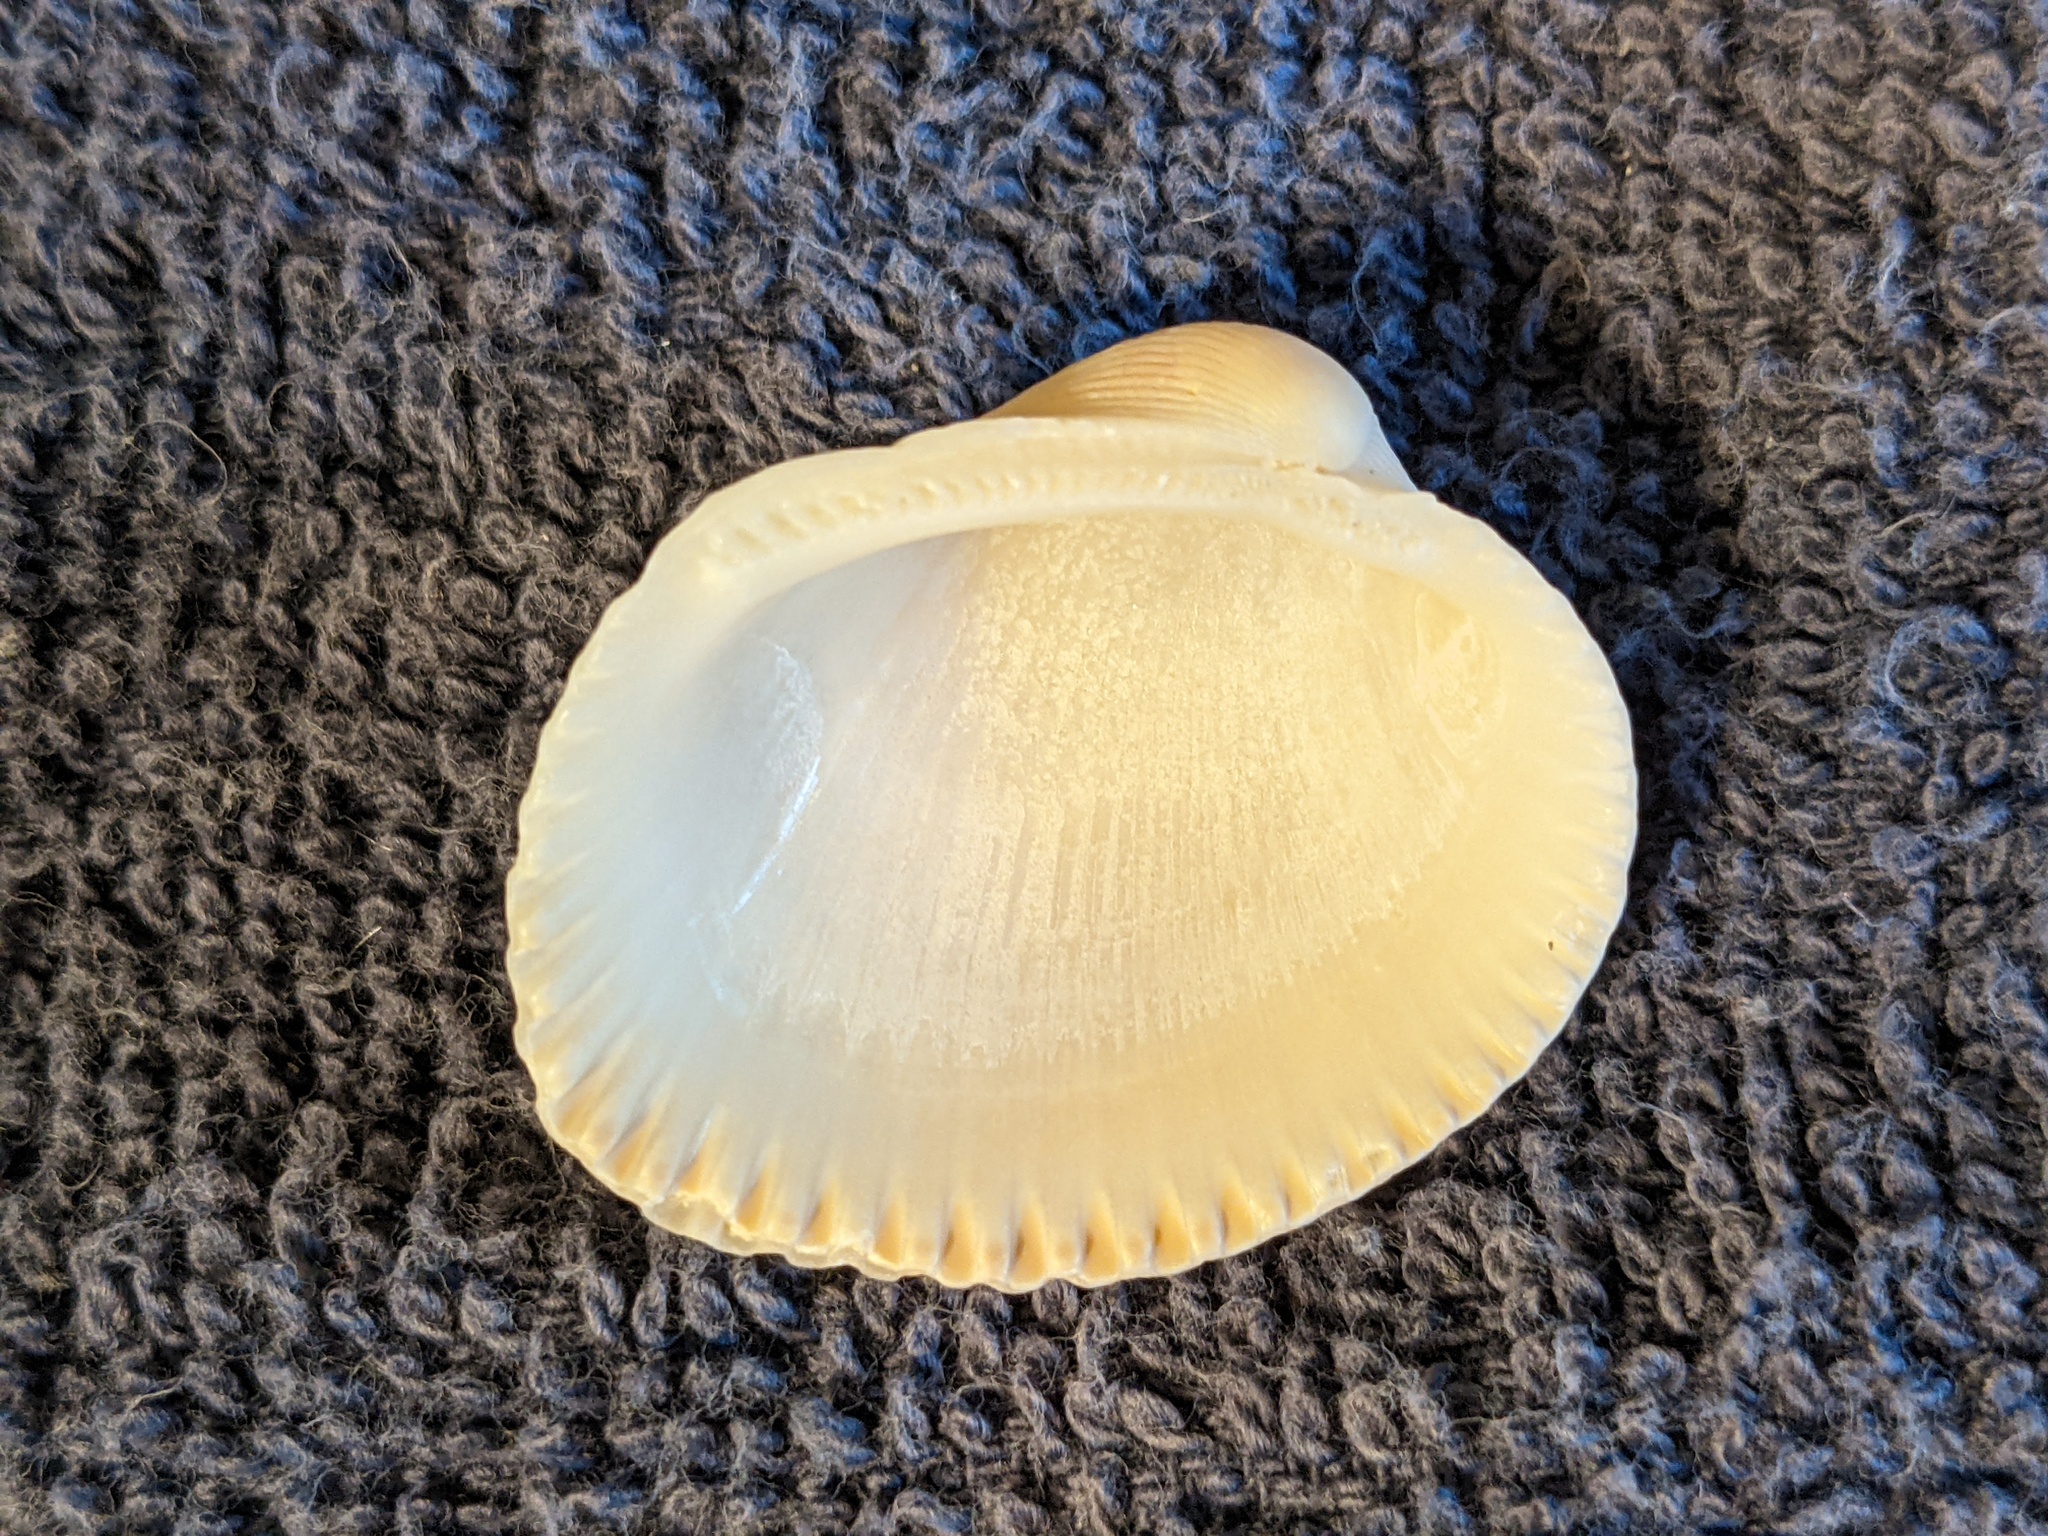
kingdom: Animalia
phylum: Mollusca
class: Bivalvia
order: Arcida
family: Arcidae
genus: Lunarca
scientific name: Lunarca ovalis
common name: Blood ark
